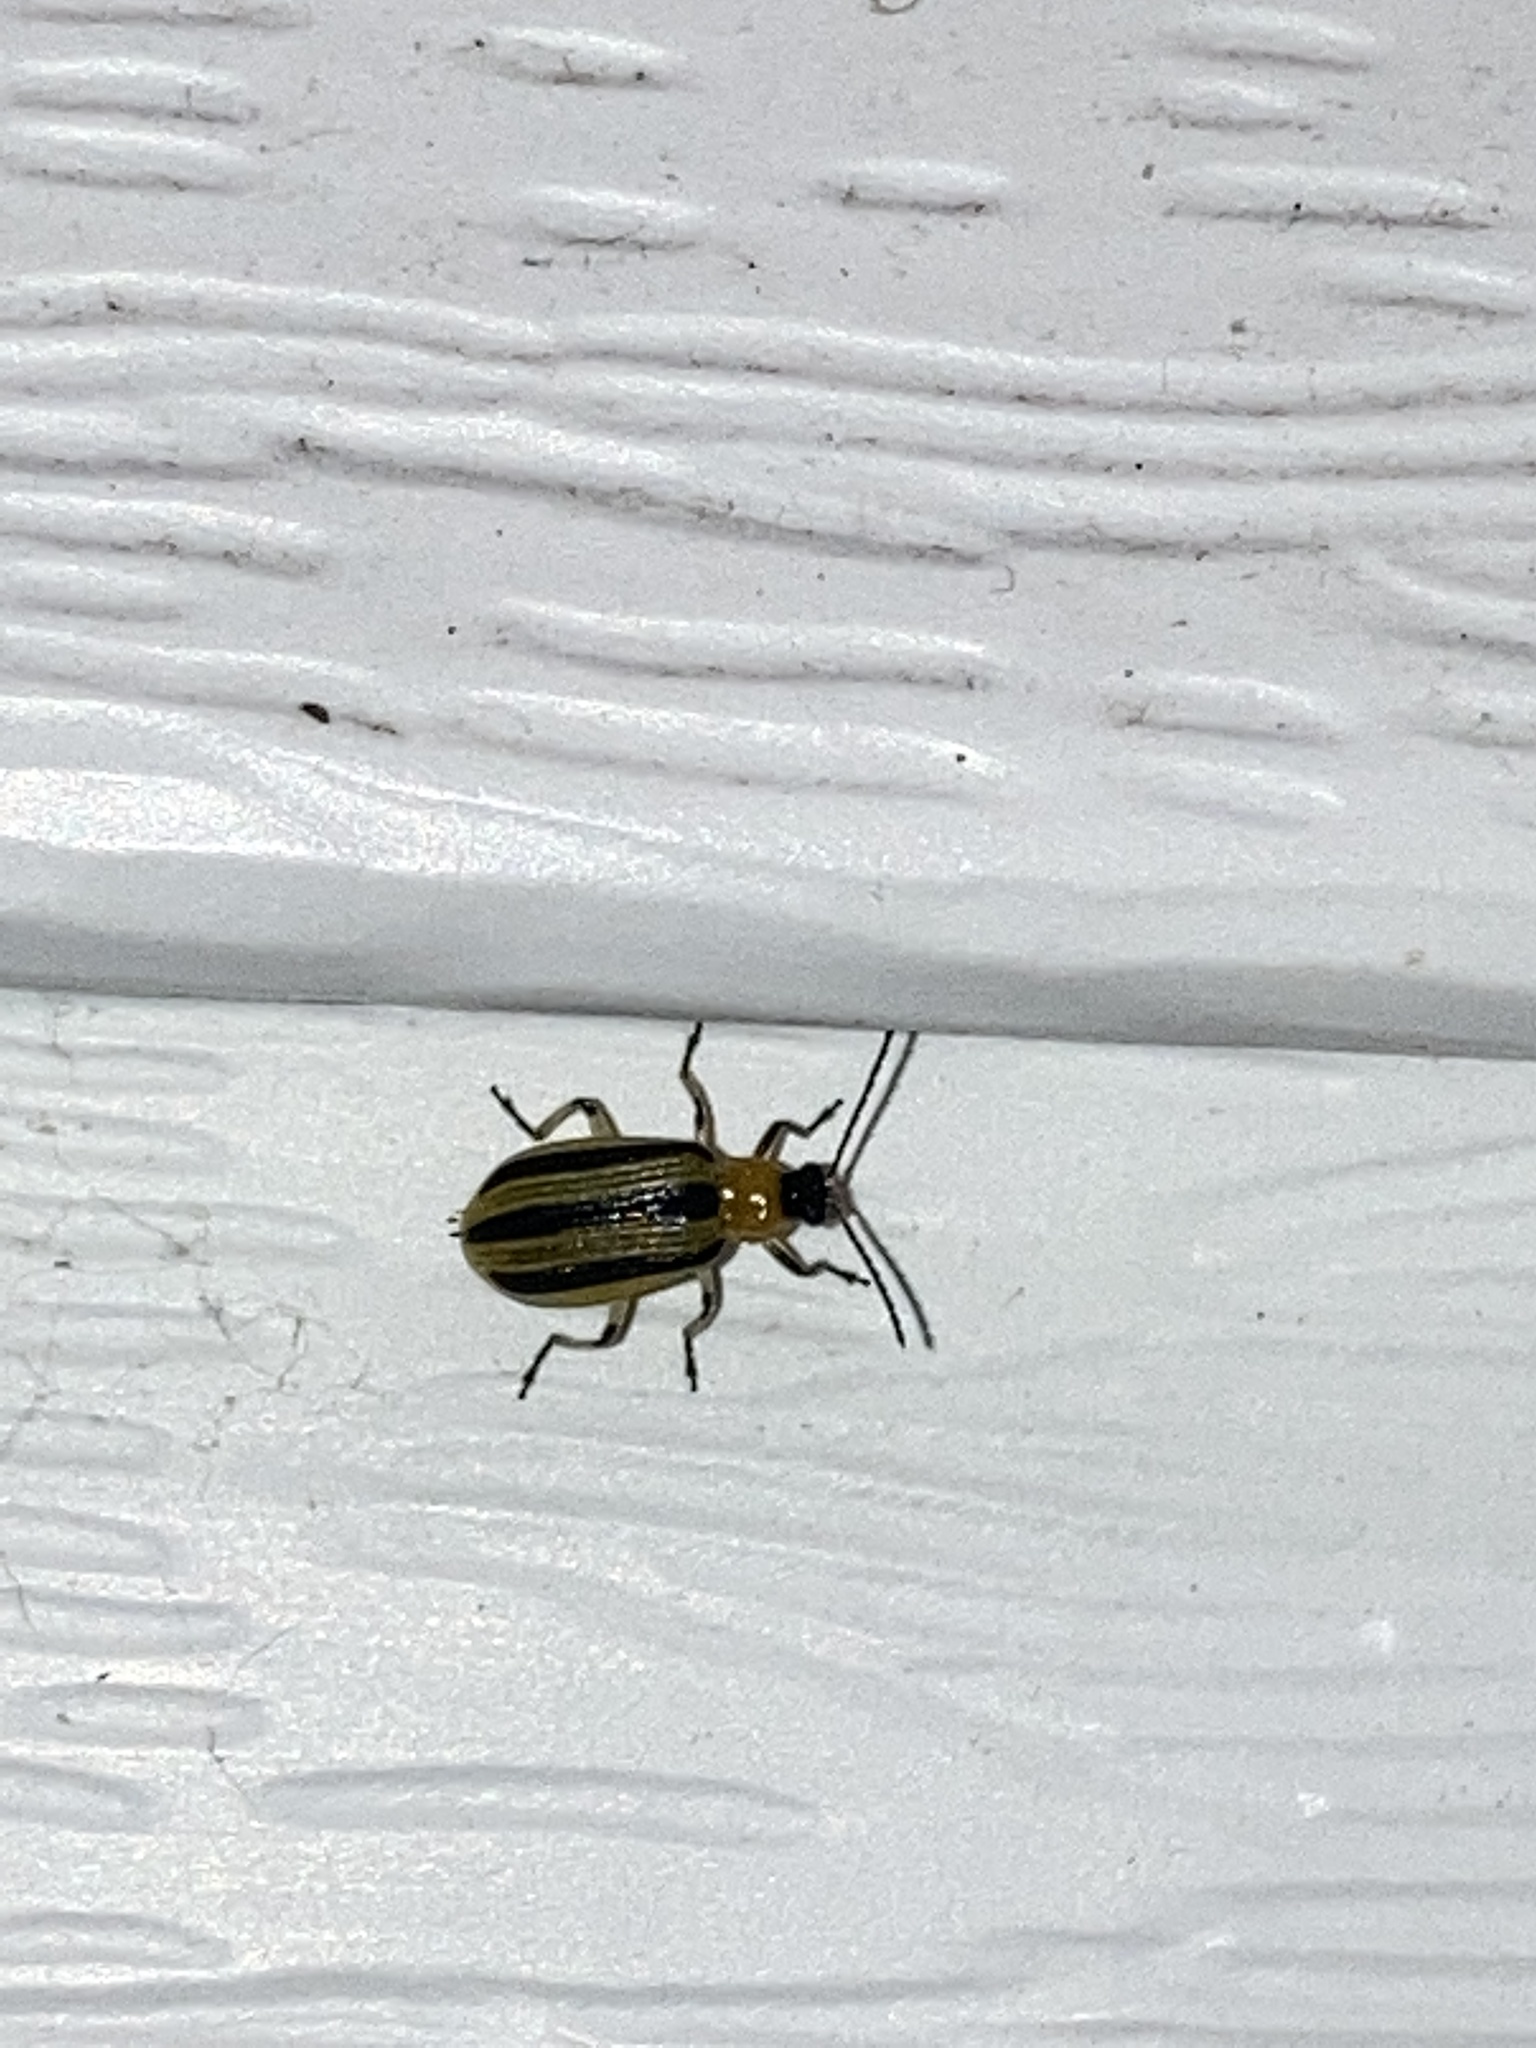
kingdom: Animalia
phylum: Arthropoda
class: Insecta
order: Coleoptera
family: Chrysomelidae
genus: Acalymma
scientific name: Acalymma vittatum
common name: Striped cucumber beetle
